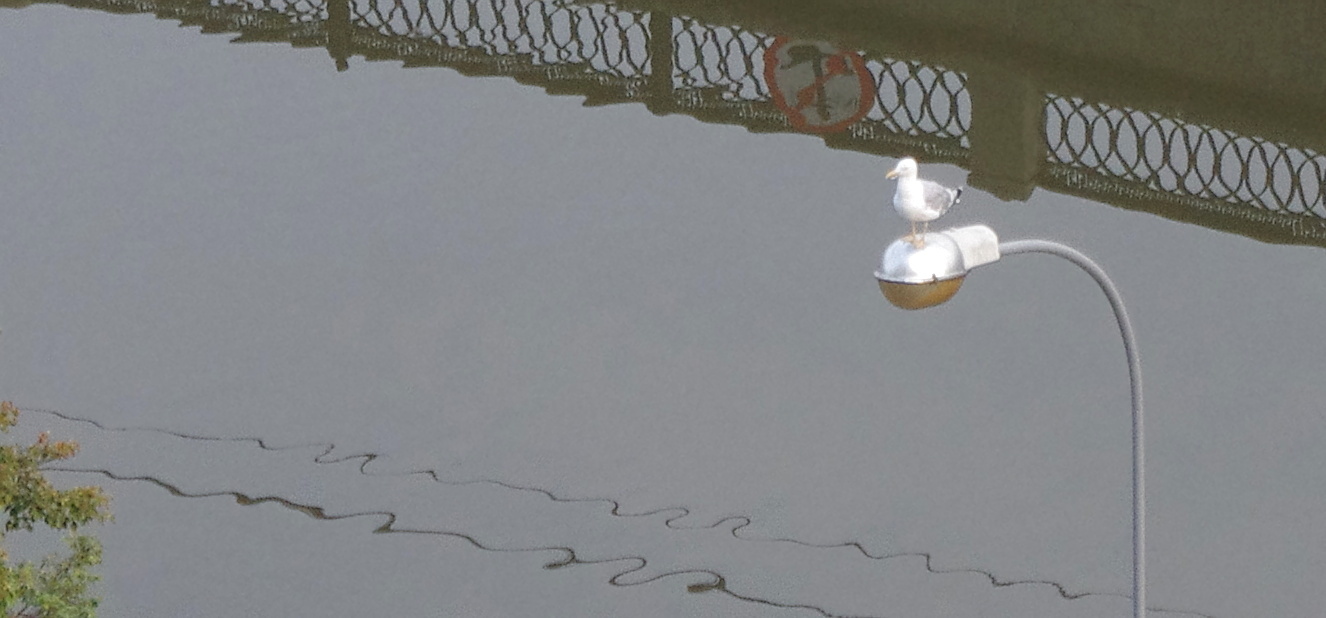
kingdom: Animalia
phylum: Chordata
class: Aves
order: Charadriiformes
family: Laridae
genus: Larus
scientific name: Larus argentatus
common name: Herring gull
